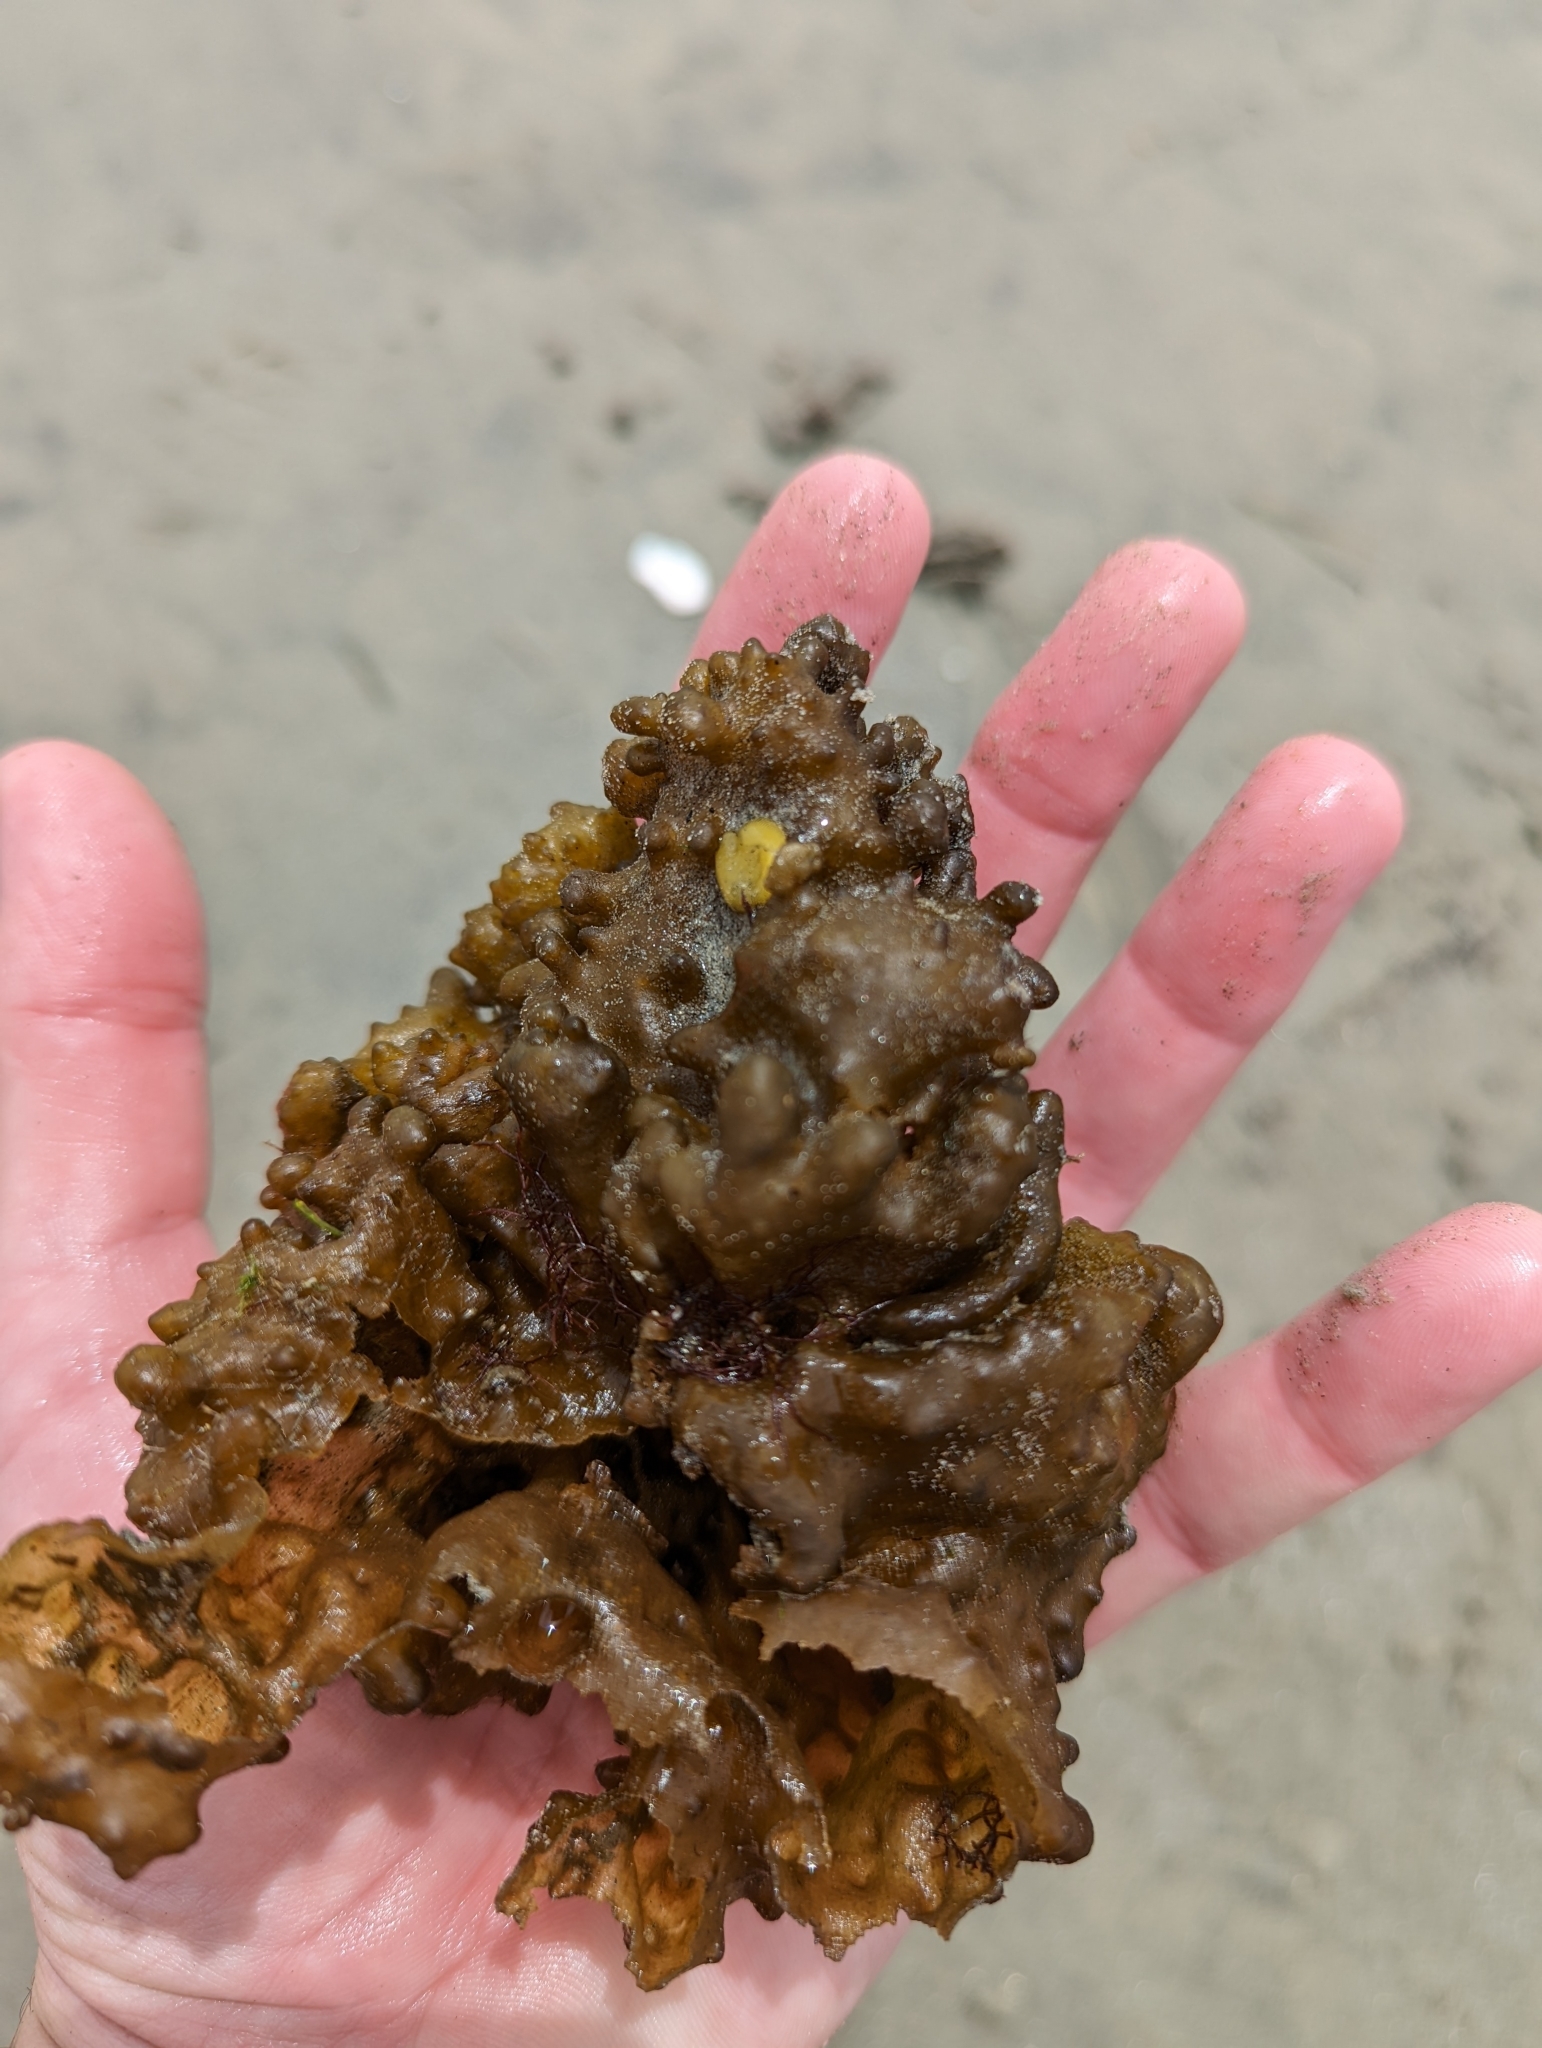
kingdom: Chromista
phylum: Ochrophyta
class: Phaeophyceae
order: Scytosiphonales
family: Scytosiphonaceae
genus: Colpomenia
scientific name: Colpomenia
